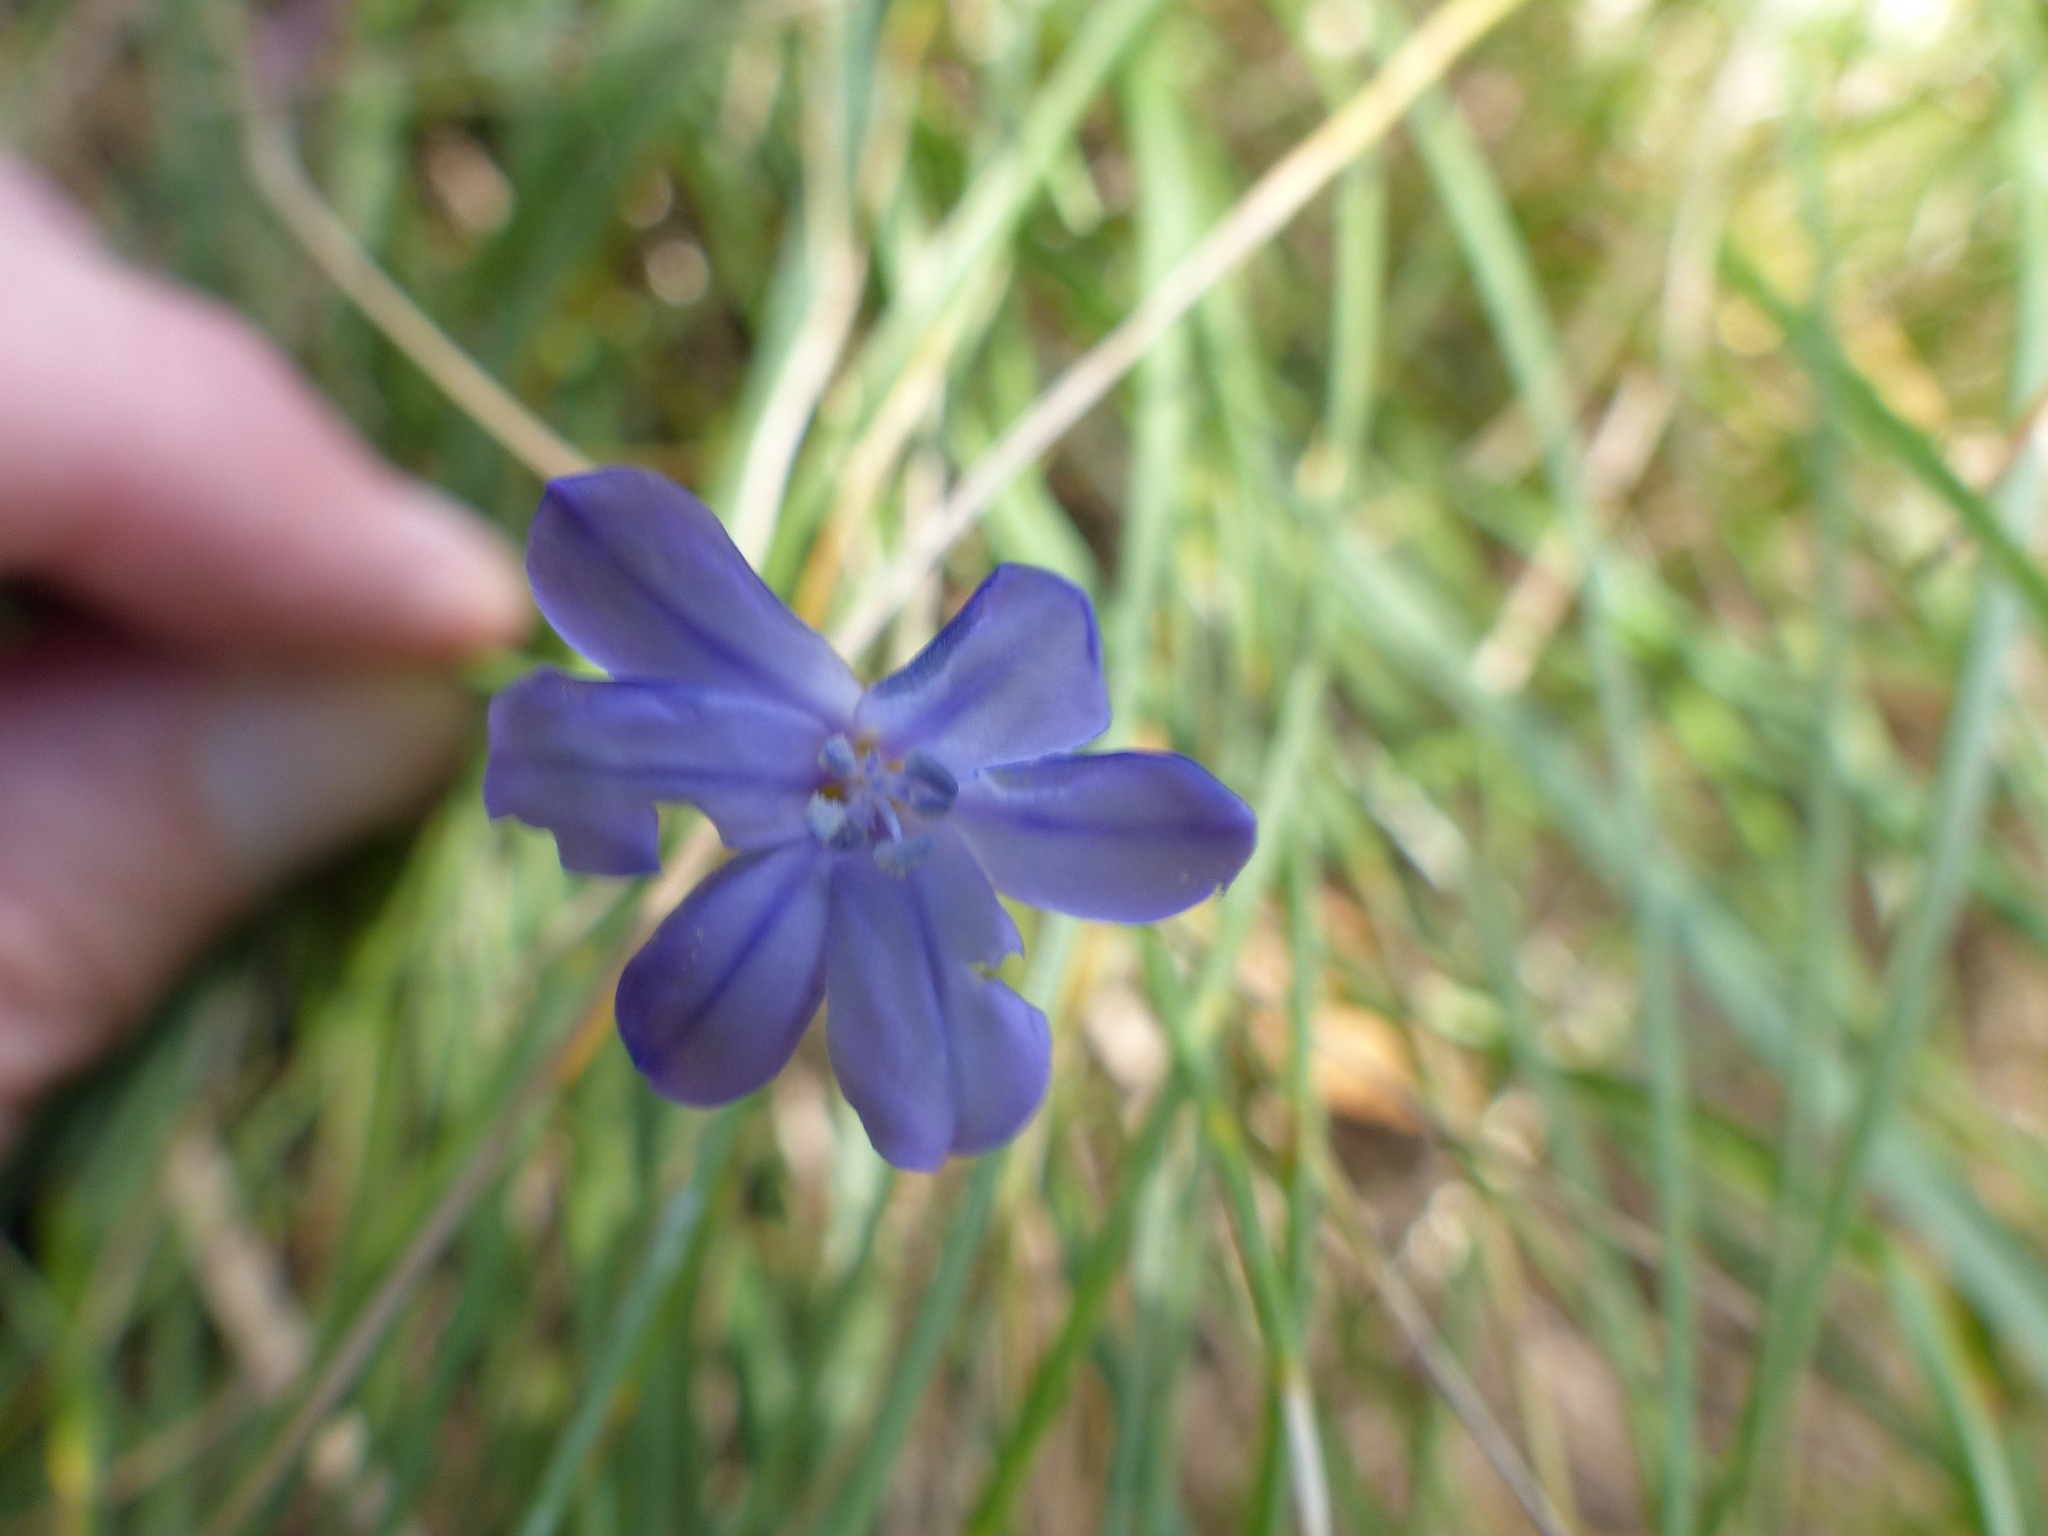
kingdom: Plantae
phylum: Tracheophyta
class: Liliopsida
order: Asparagales
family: Asparagaceae
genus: Aphyllanthes
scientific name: Aphyllanthes monspeliensis
